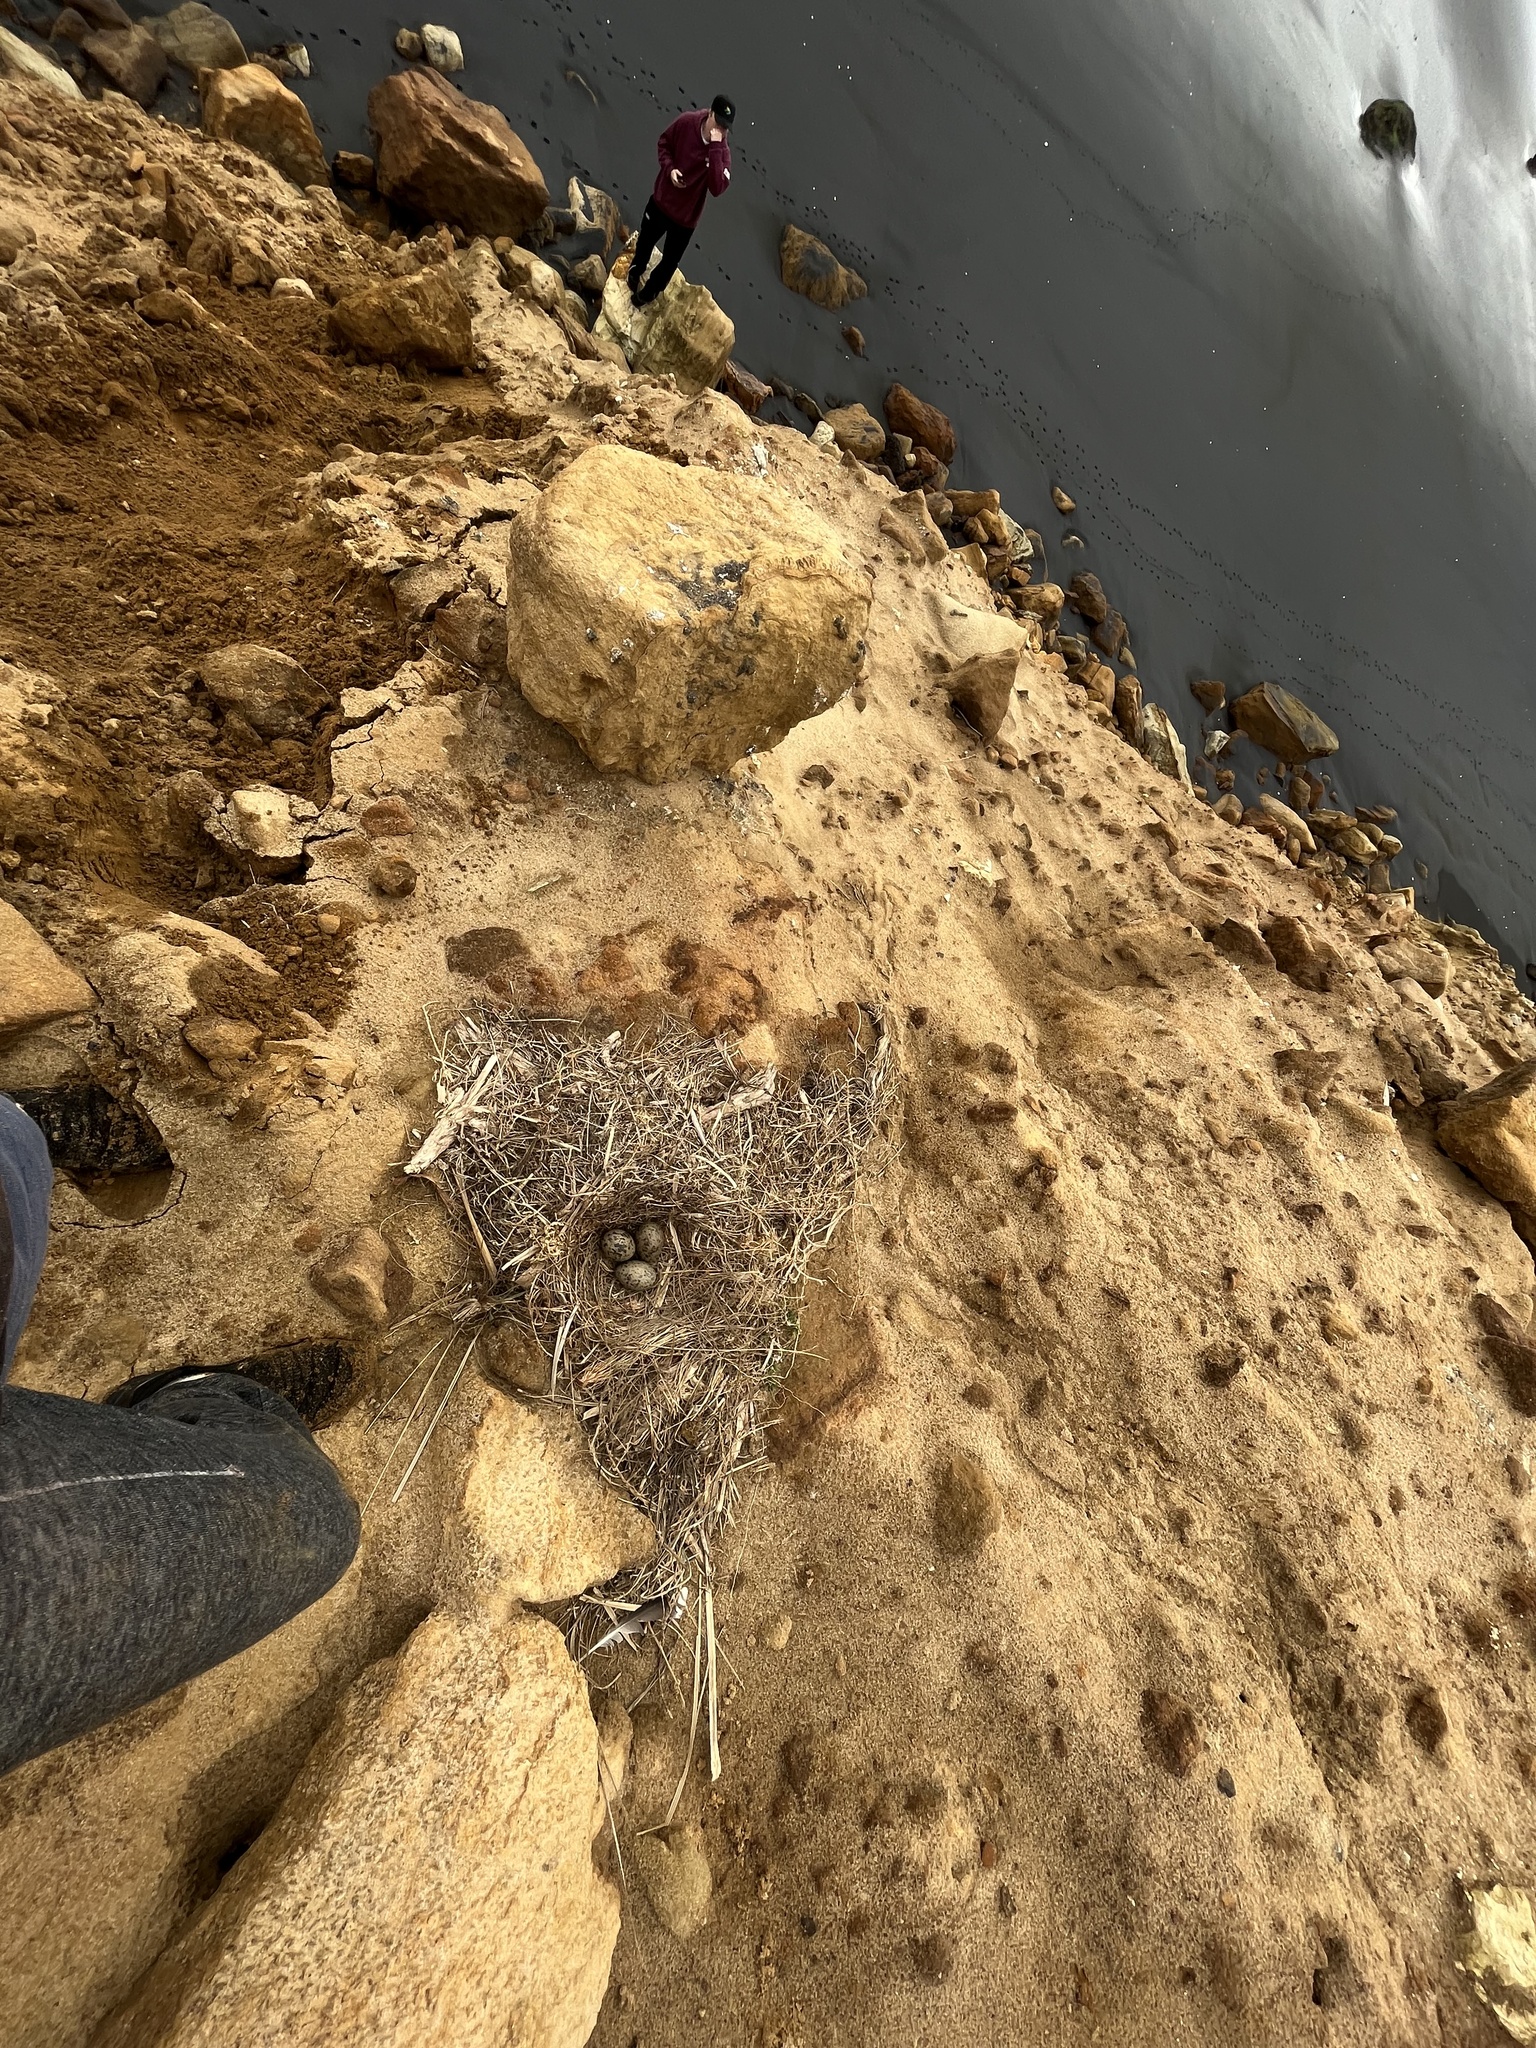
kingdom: Animalia
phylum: Chordata
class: Aves
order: Charadriiformes
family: Laridae
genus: Larus
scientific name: Larus dominicanus
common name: Kelp gull
